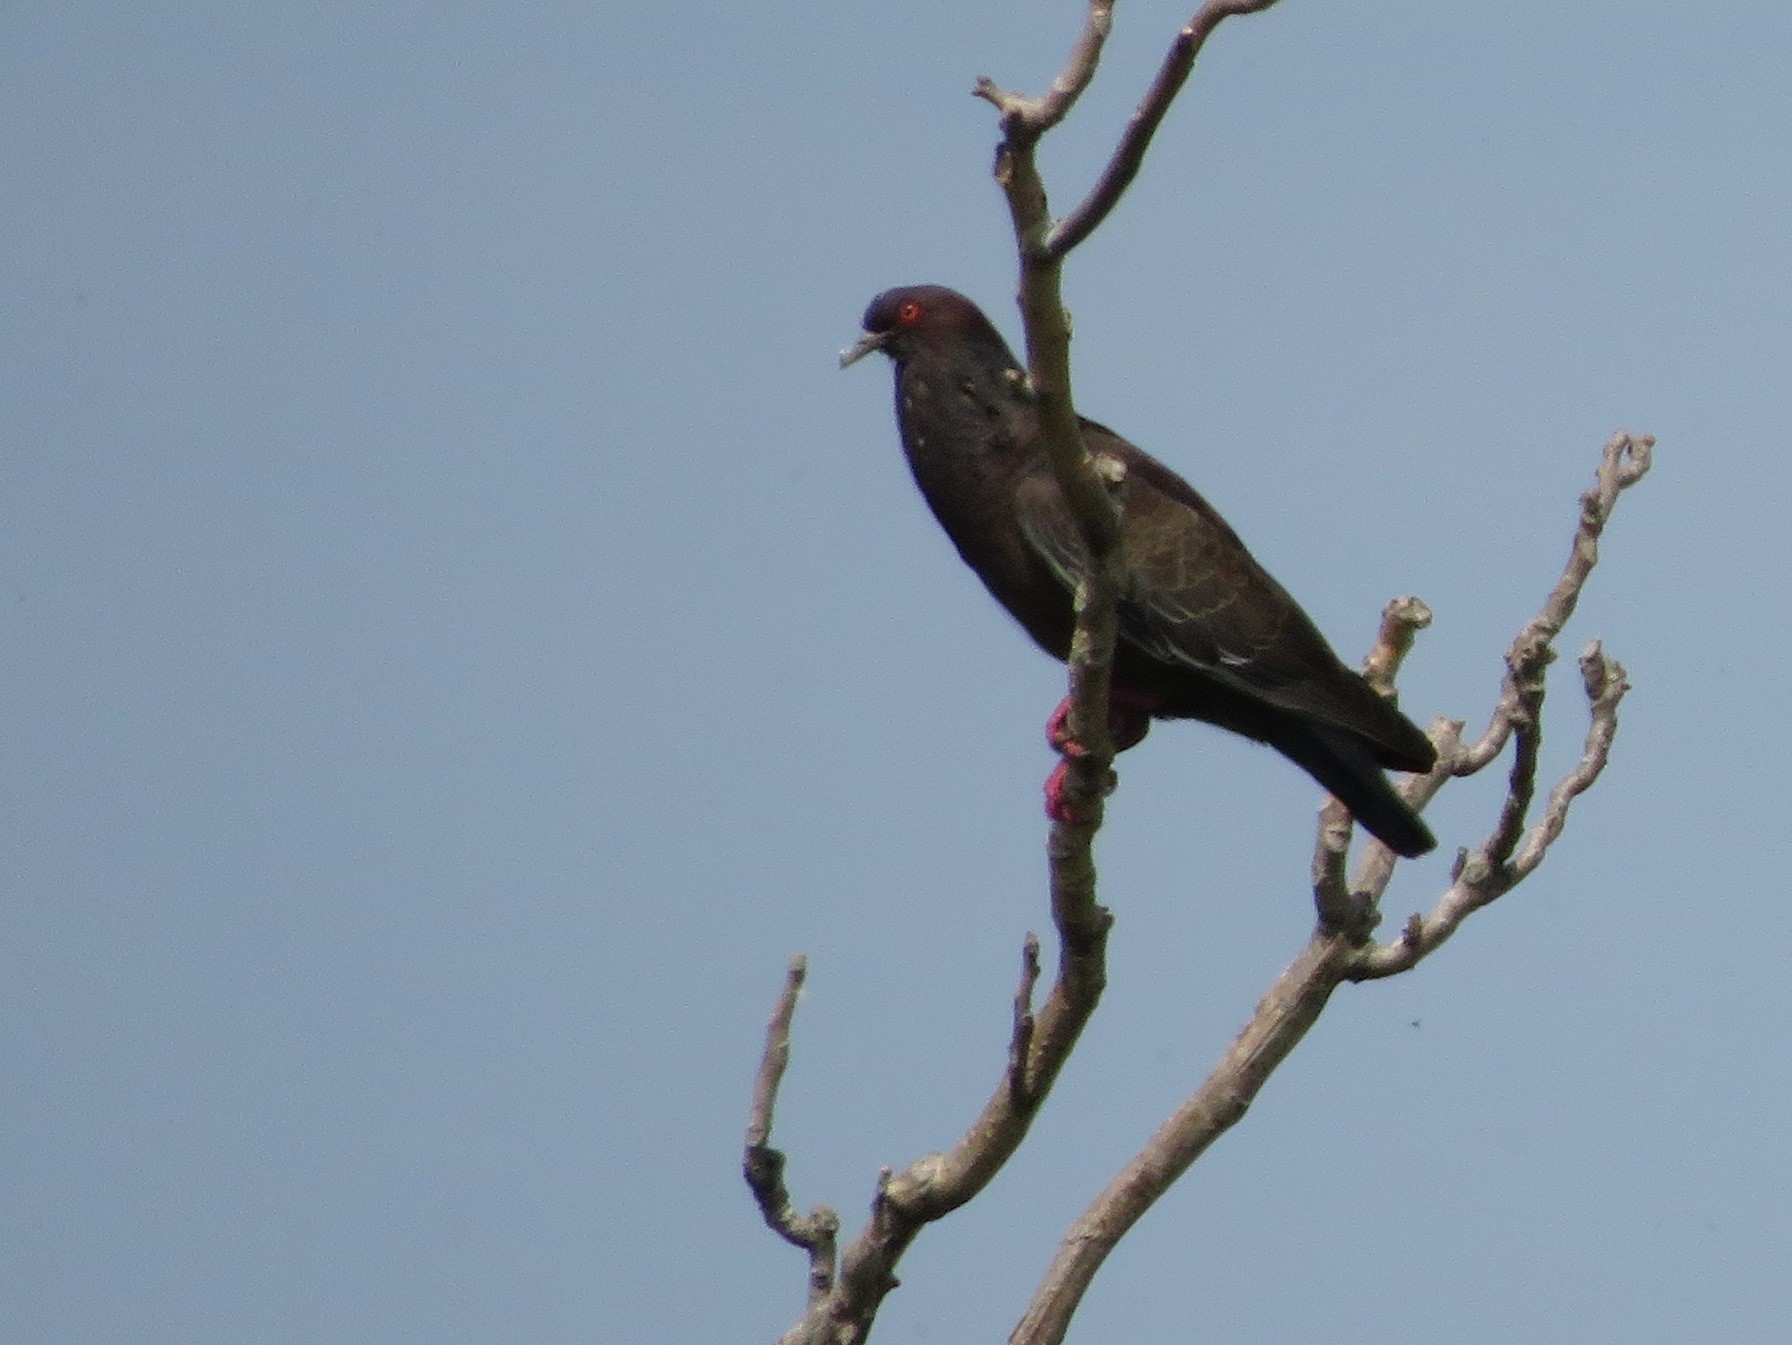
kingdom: Animalia
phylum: Chordata
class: Aves
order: Columbiformes
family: Columbidae
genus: Patagioenas
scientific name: Patagioenas picazuro
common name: Picazuro pigeon
